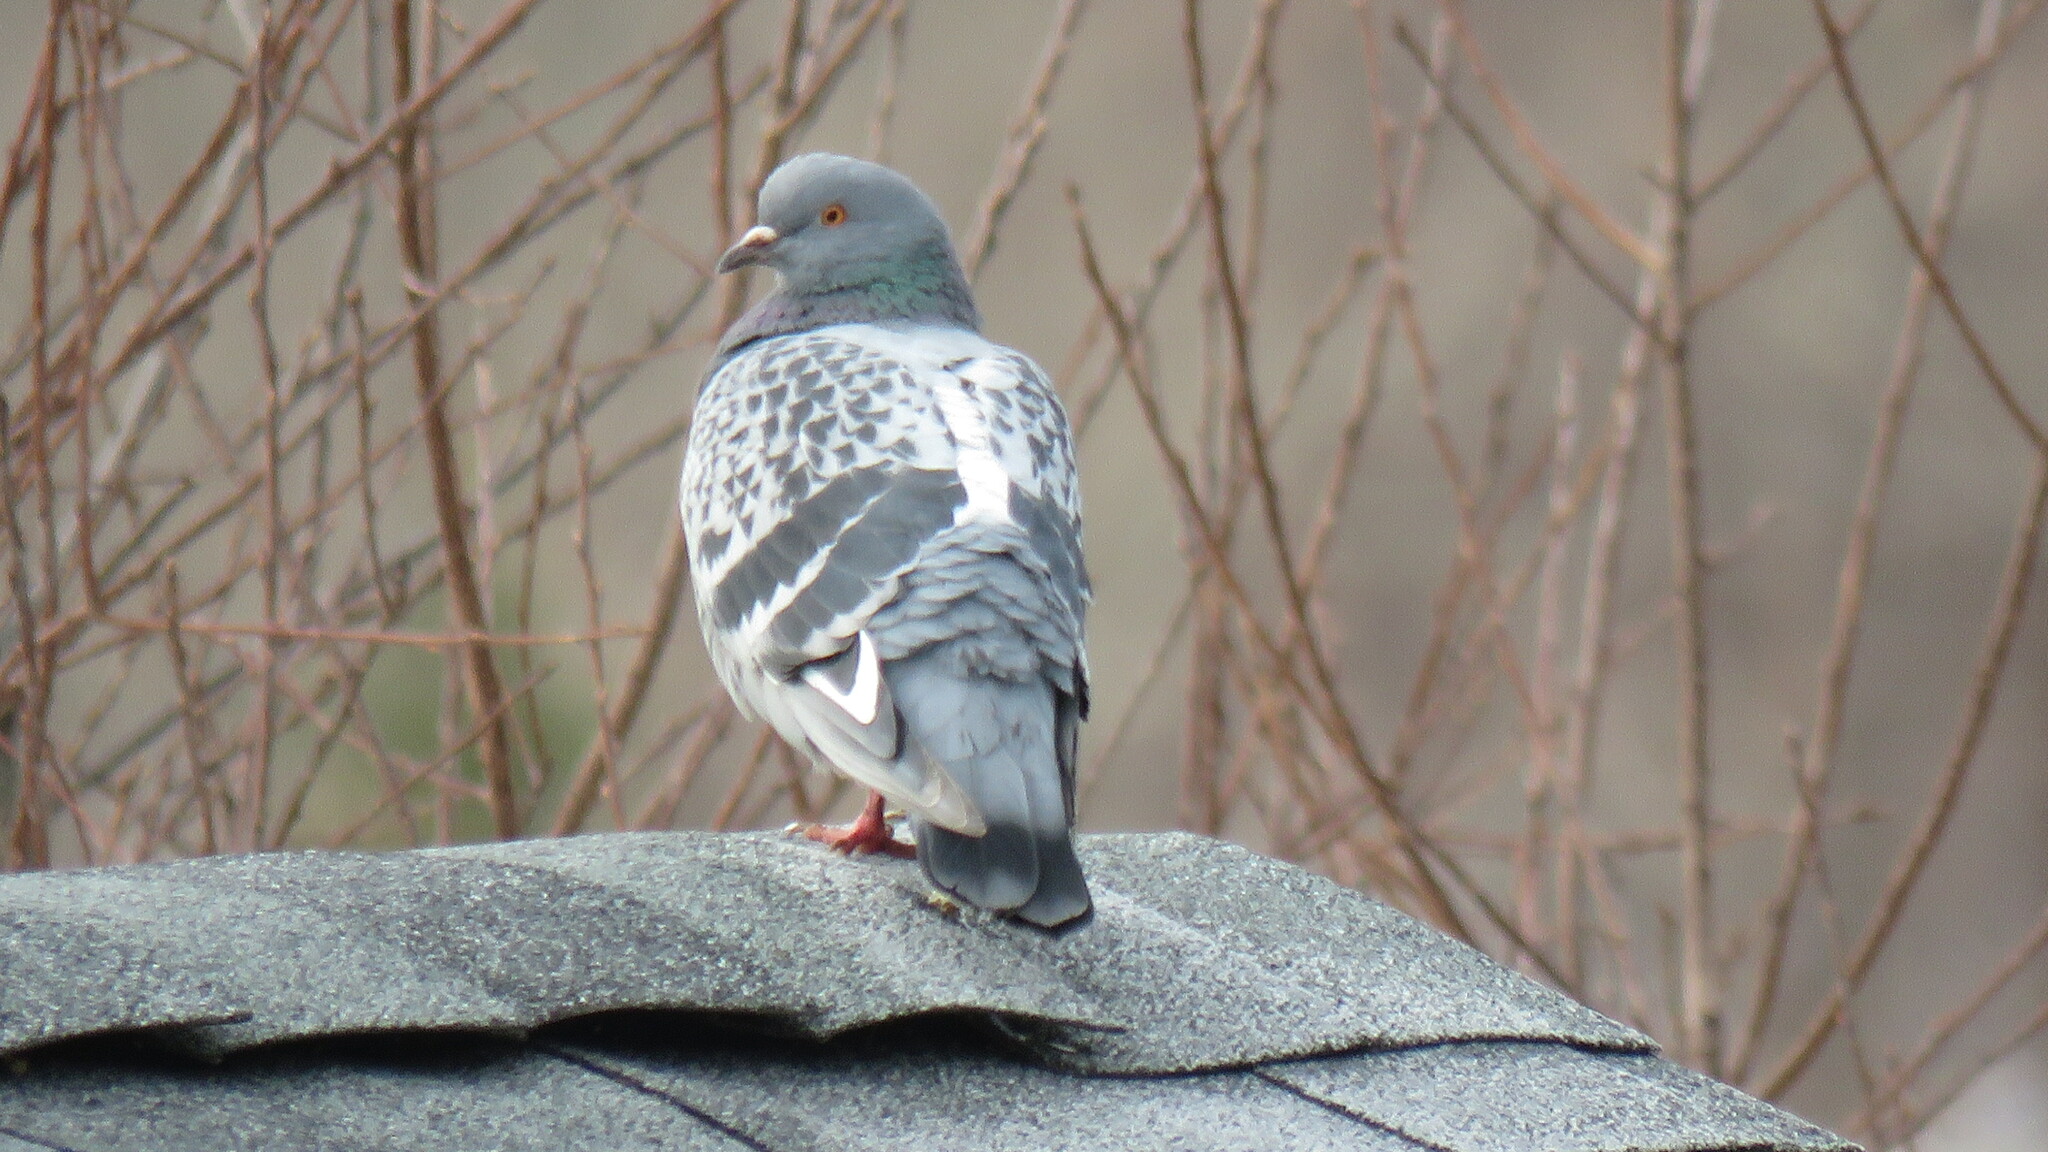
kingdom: Animalia
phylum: Chordata
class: Aves
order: Columbiformes
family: Columbidae
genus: Columba
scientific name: Columba livia
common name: Rock pigeon
